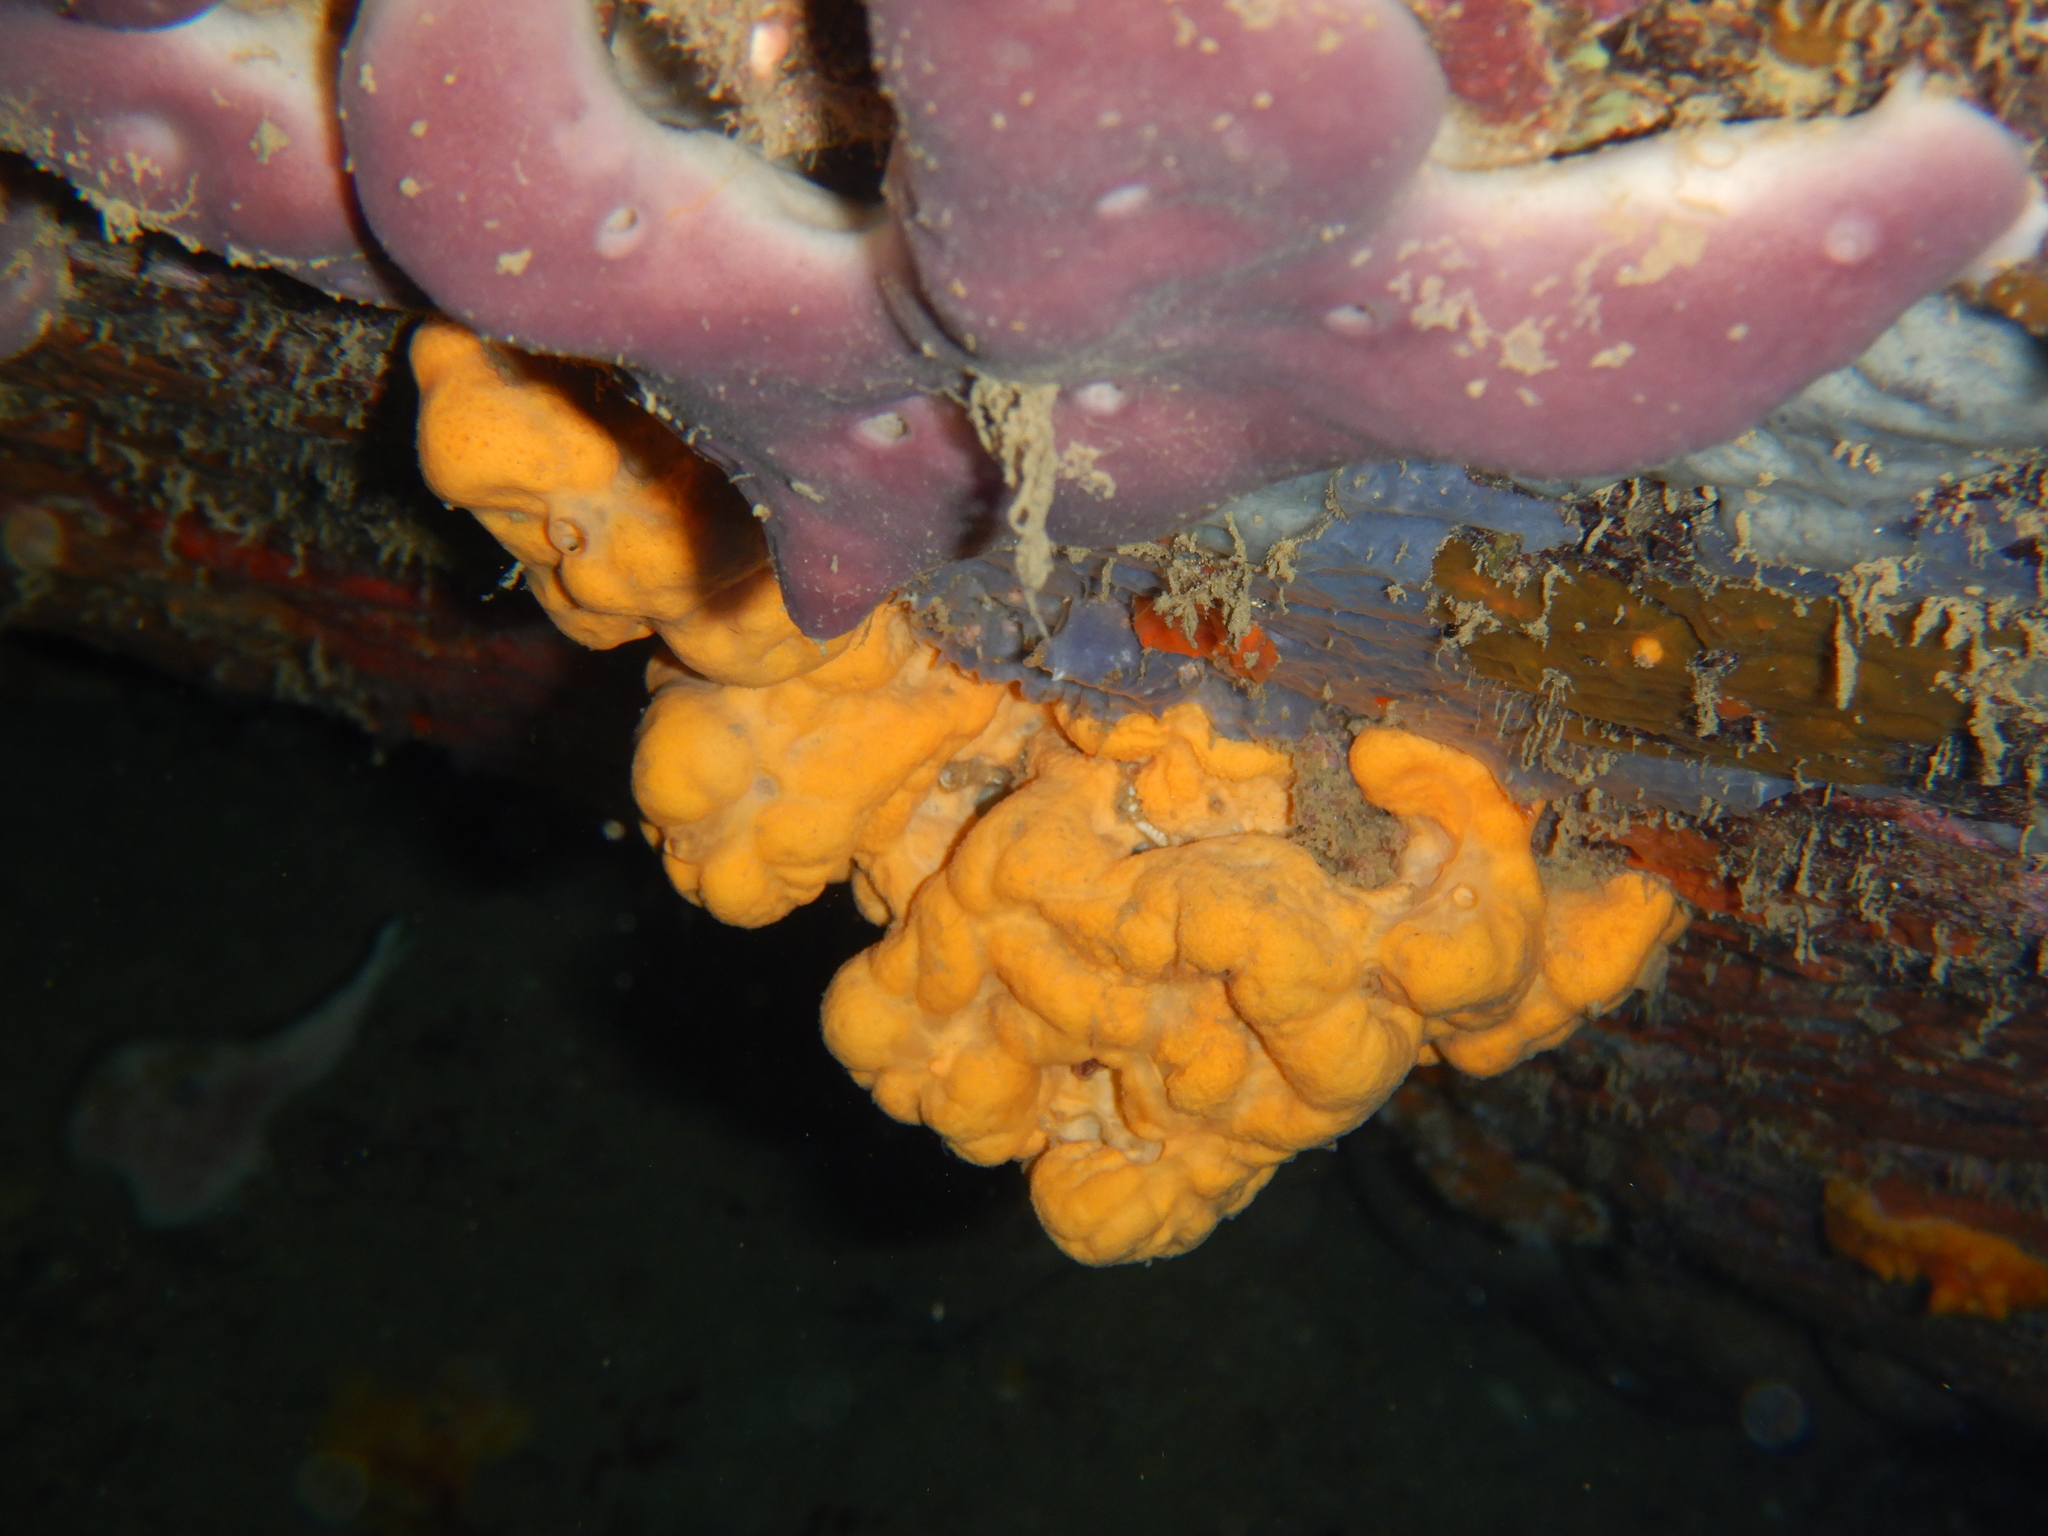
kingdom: Animalia
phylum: Porifera
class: Demospongiae
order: Agelasida
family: Agelasidae
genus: Agelas
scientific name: Agelas oroides
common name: Maltese sponge
